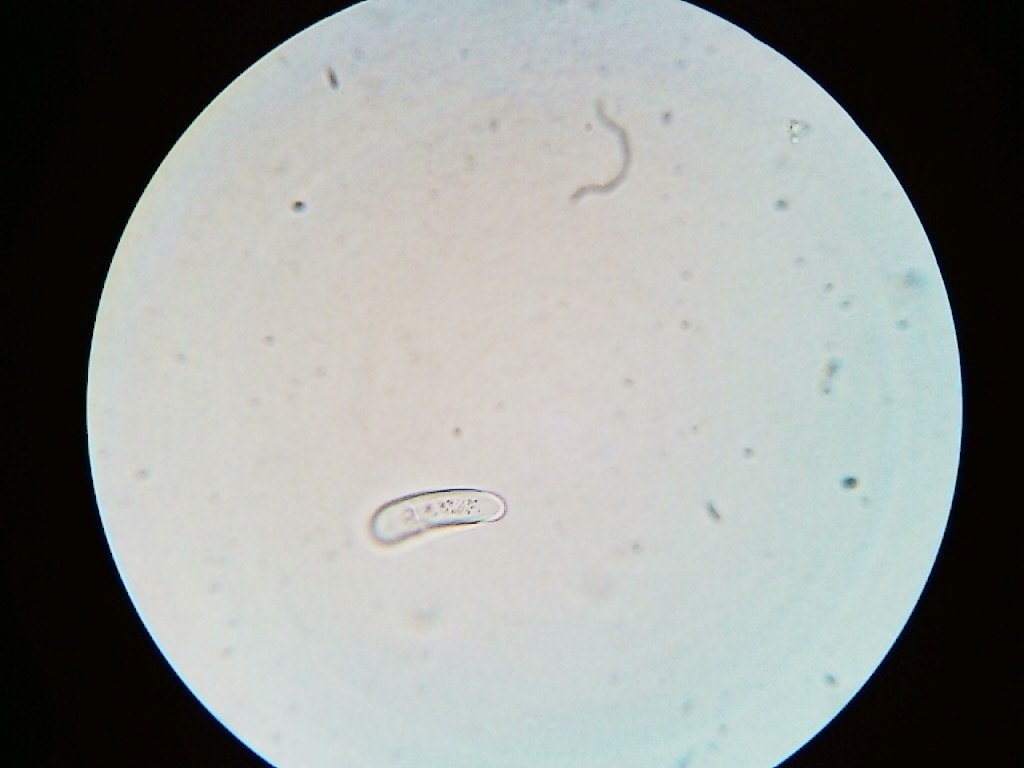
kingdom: Fungi
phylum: Ascomycota
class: Leotiomycetes
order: Chaetomellales
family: Marthamycetaceae
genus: Propolis
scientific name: Propolis farinosa
